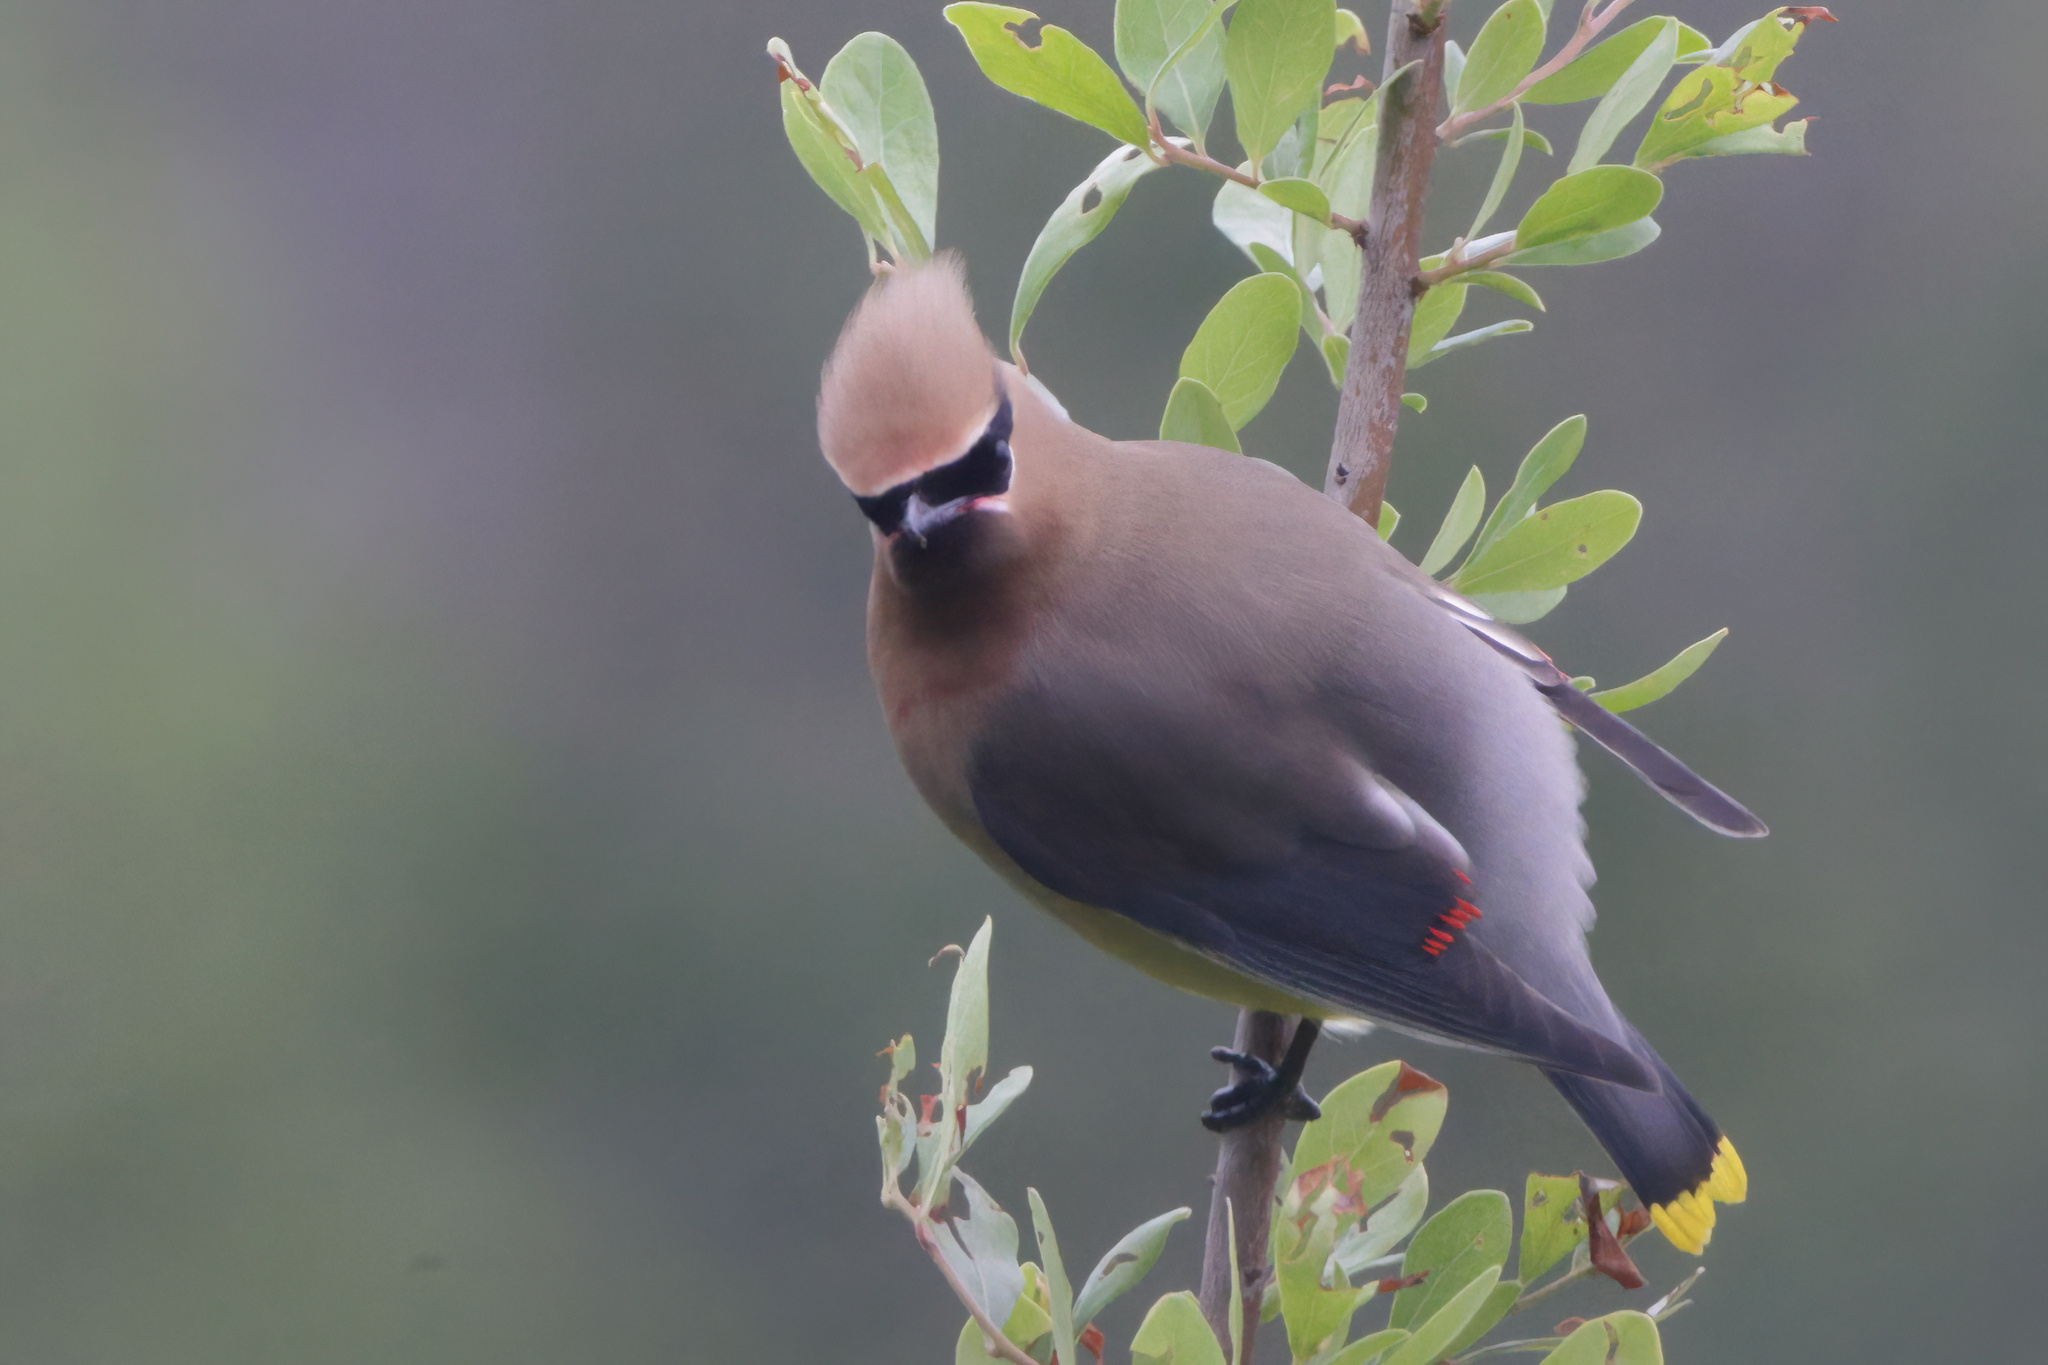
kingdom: Animalia
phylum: Chordata
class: Aves
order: Passeriformes
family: Bombycillidae
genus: Bombycilla
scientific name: Bombycilla cedrorum
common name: Cedar waxwing
